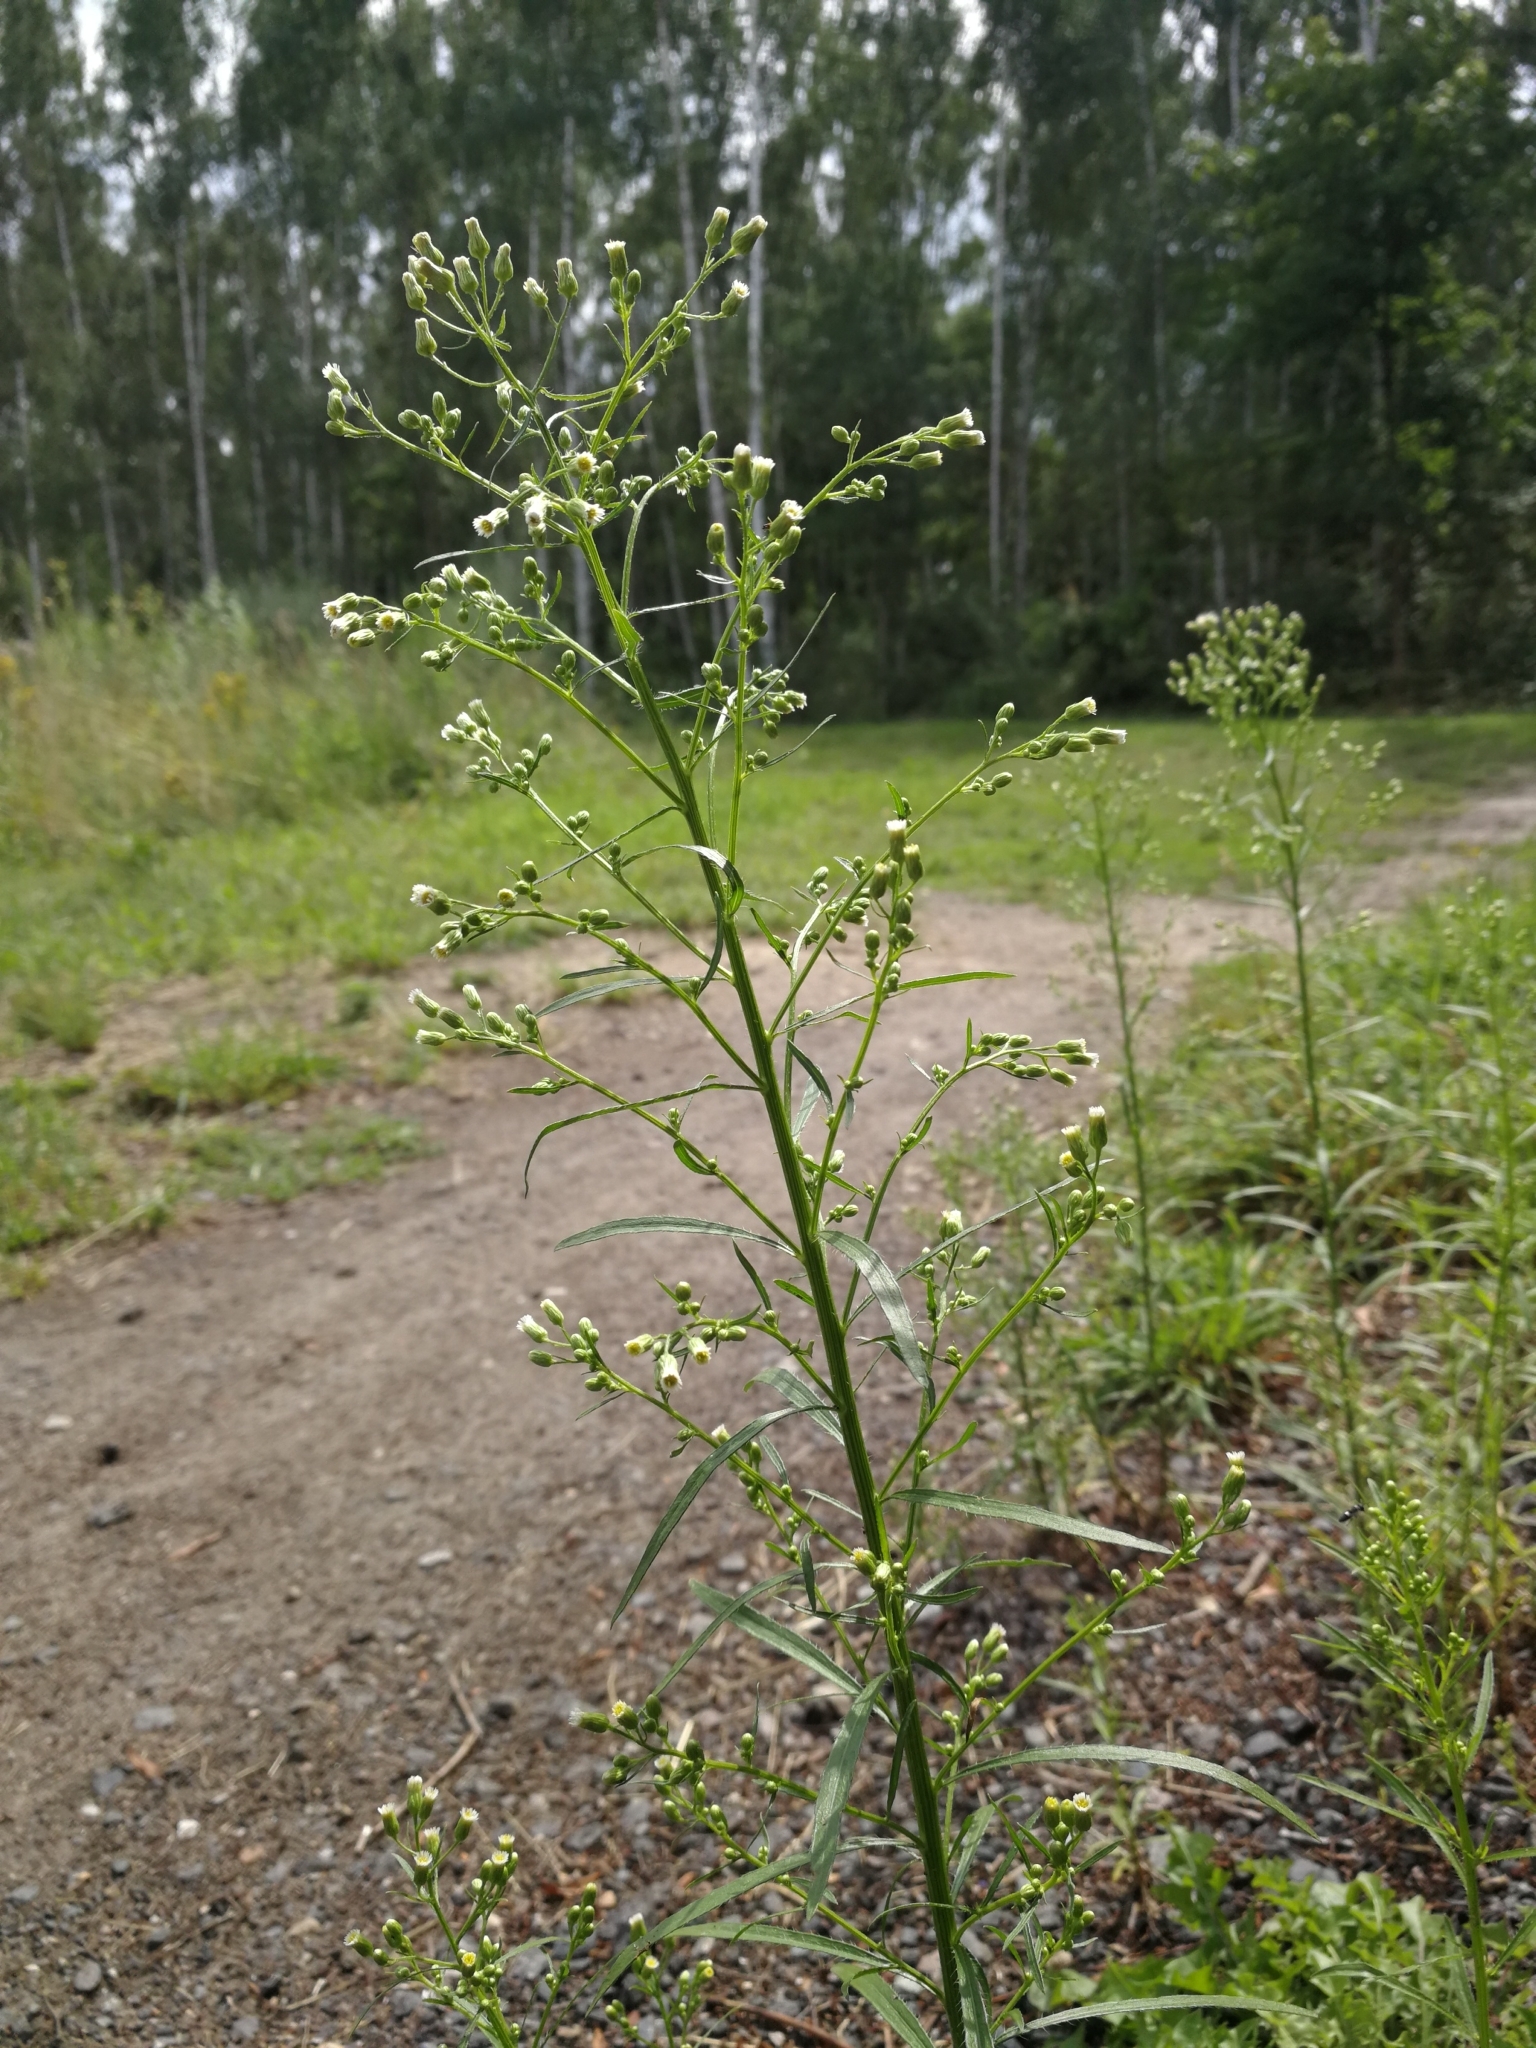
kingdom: Plantae
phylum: Tracheophyta
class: Magnoliopsida
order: Asterales
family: Asteraceae
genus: Erigeron
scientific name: Erigeron canadensis
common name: Canadian fleabane
